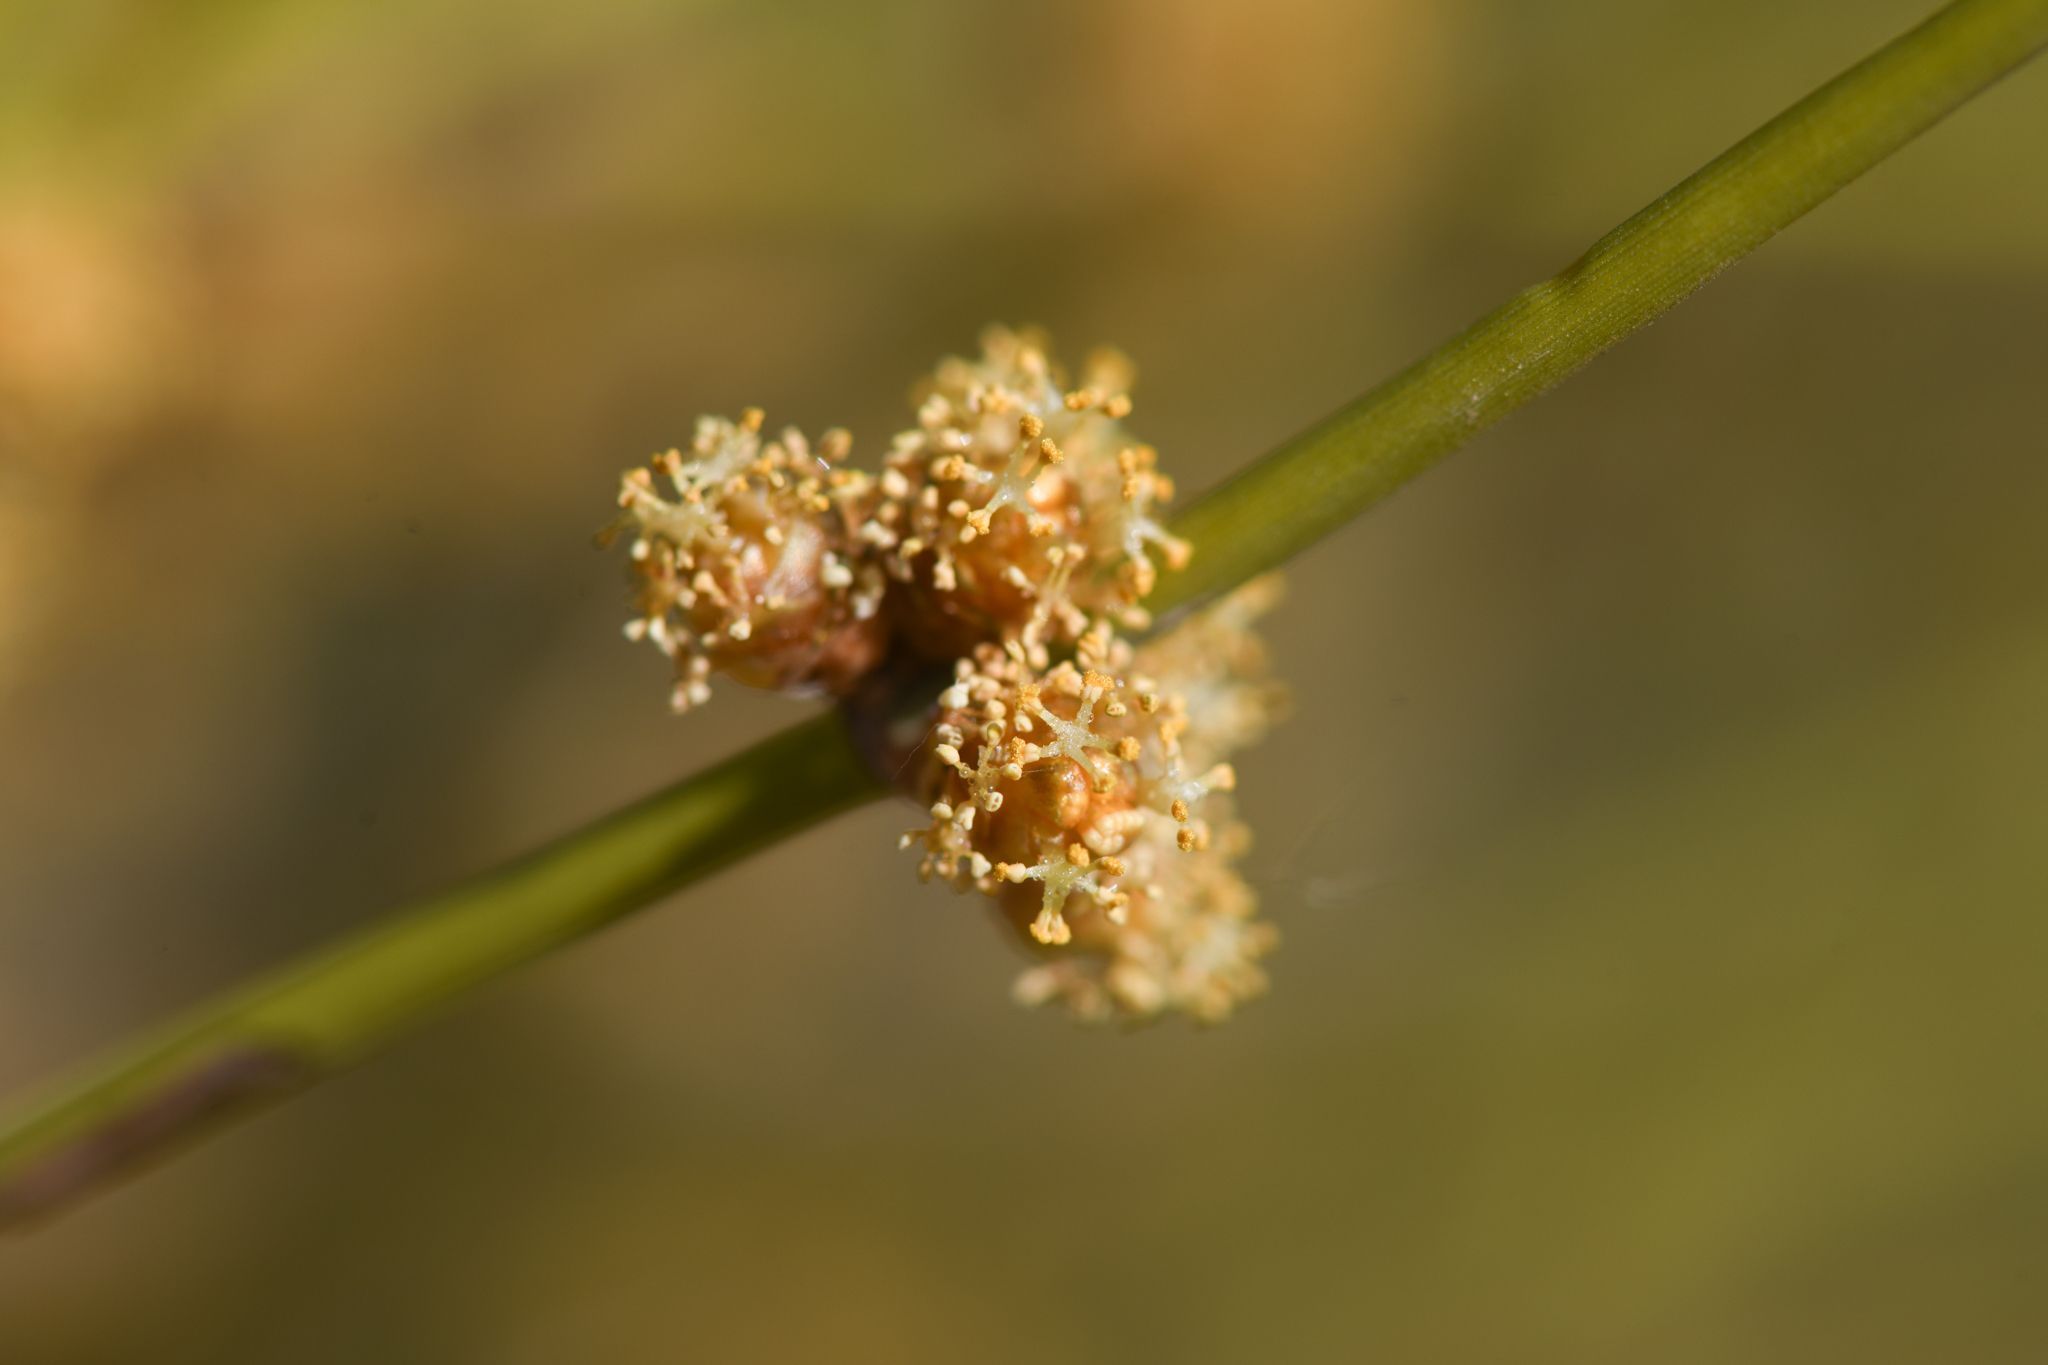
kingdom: Plantae
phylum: Tracheophyta
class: Gnetopsida
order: Ephedrales
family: Ephedraceae
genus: Ephedra
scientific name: Ephedra trifurca
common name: Mexican-tea
